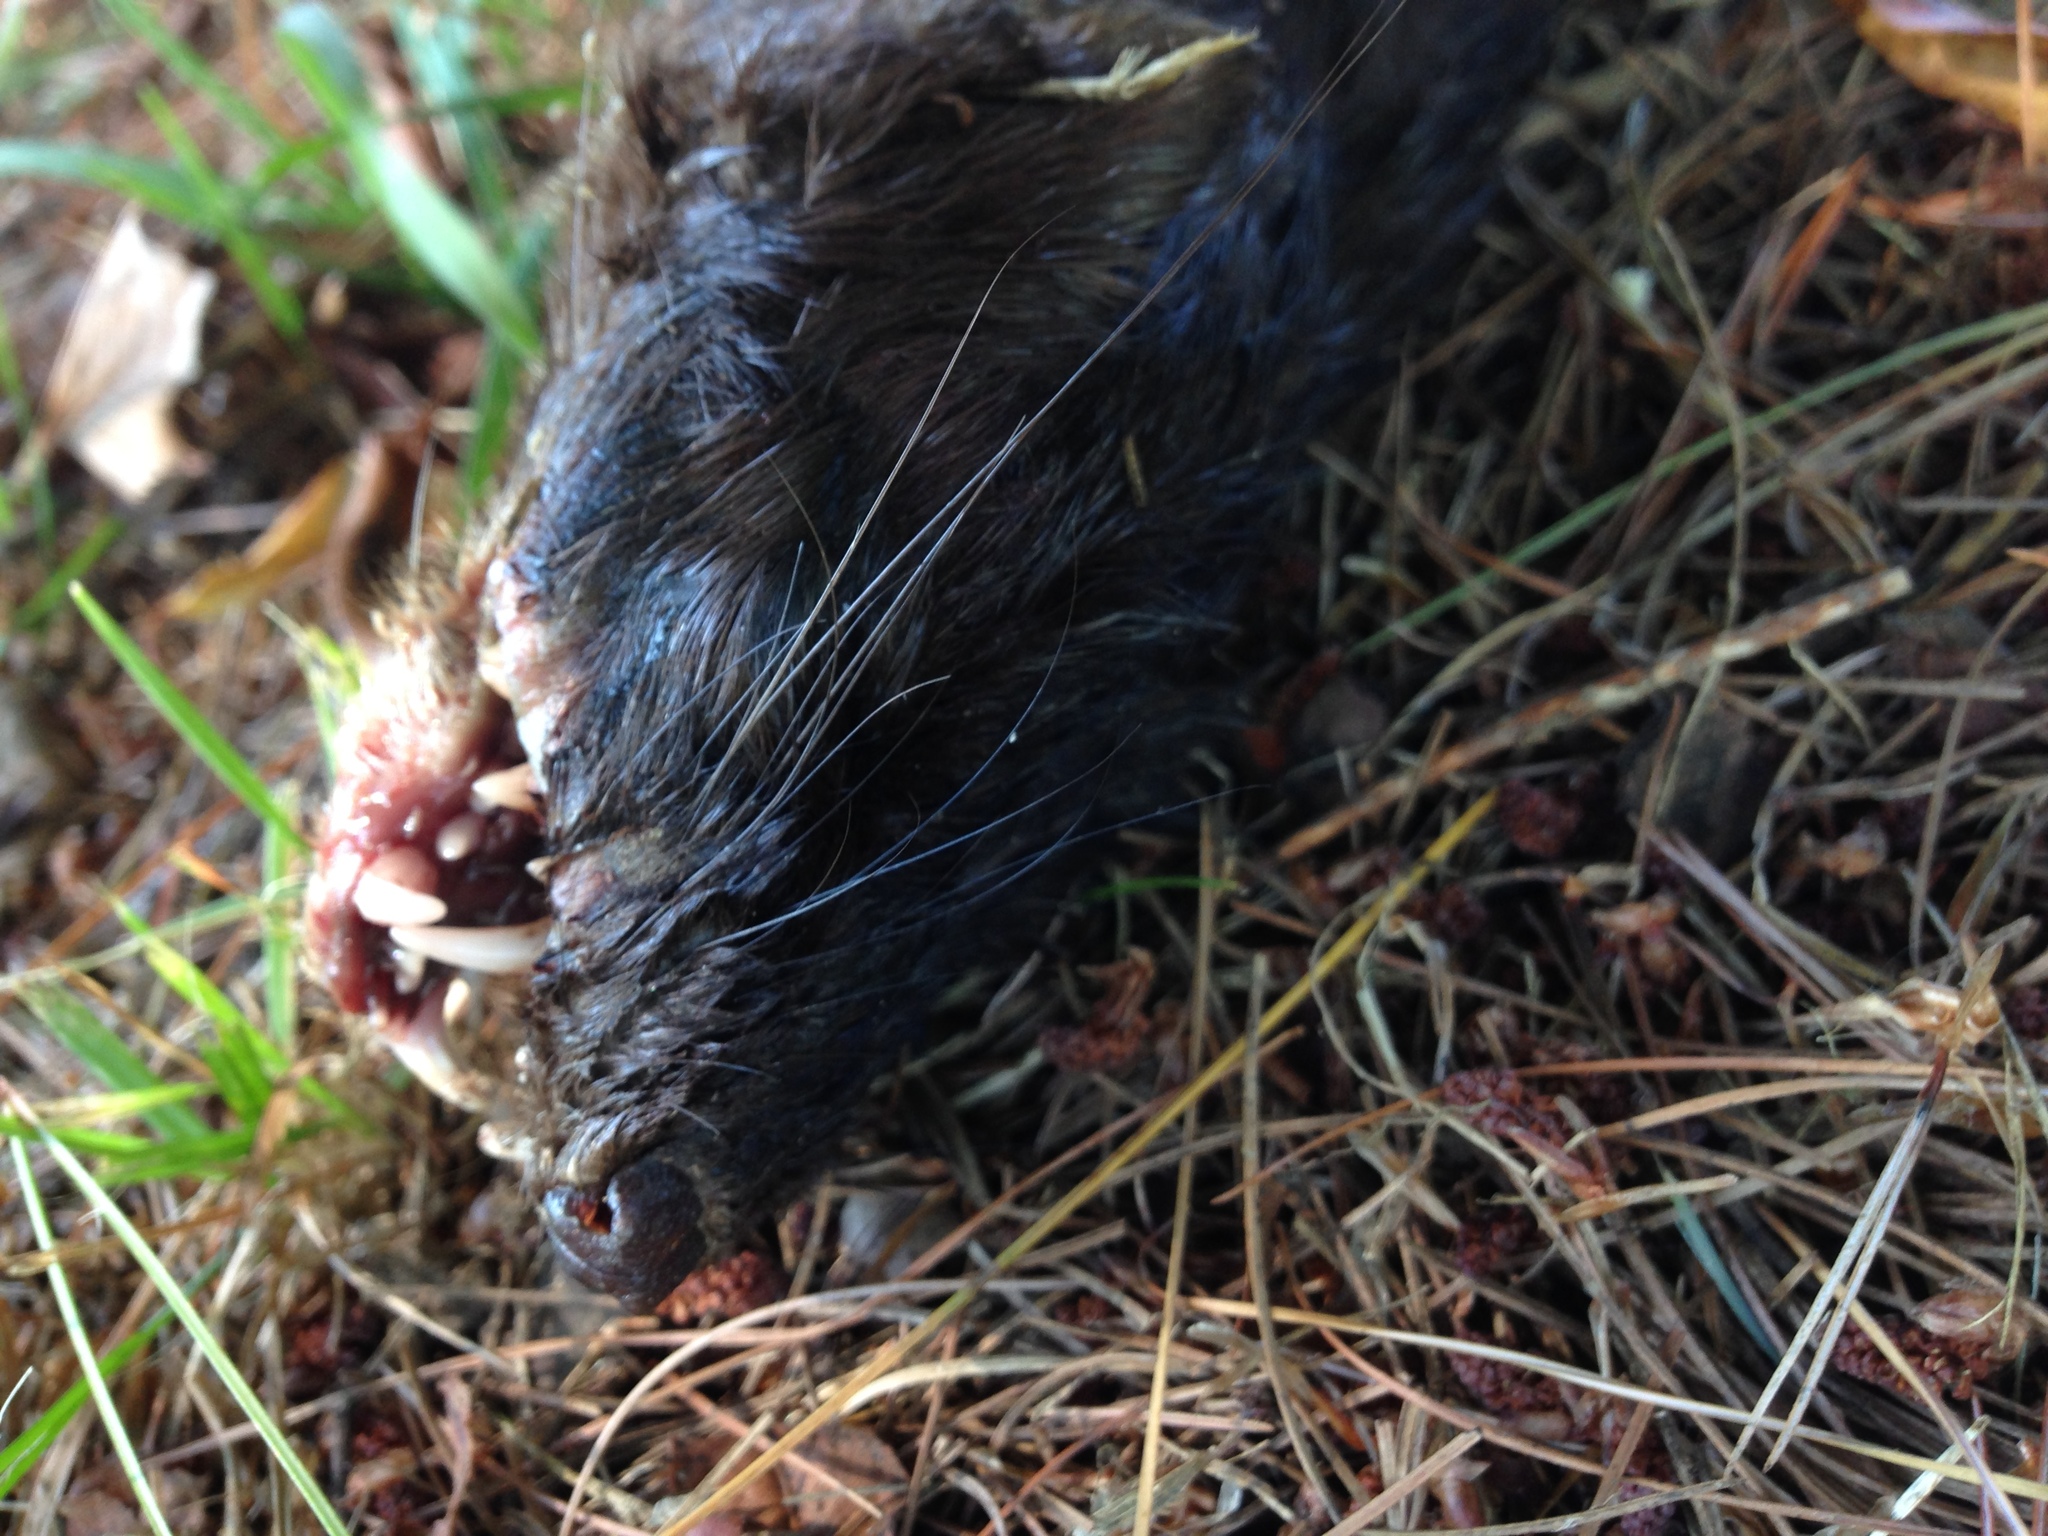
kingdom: Animalia
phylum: Chordata
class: Mammalia
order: Carnivora
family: Mustelidae
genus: Mustela
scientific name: Mustela
